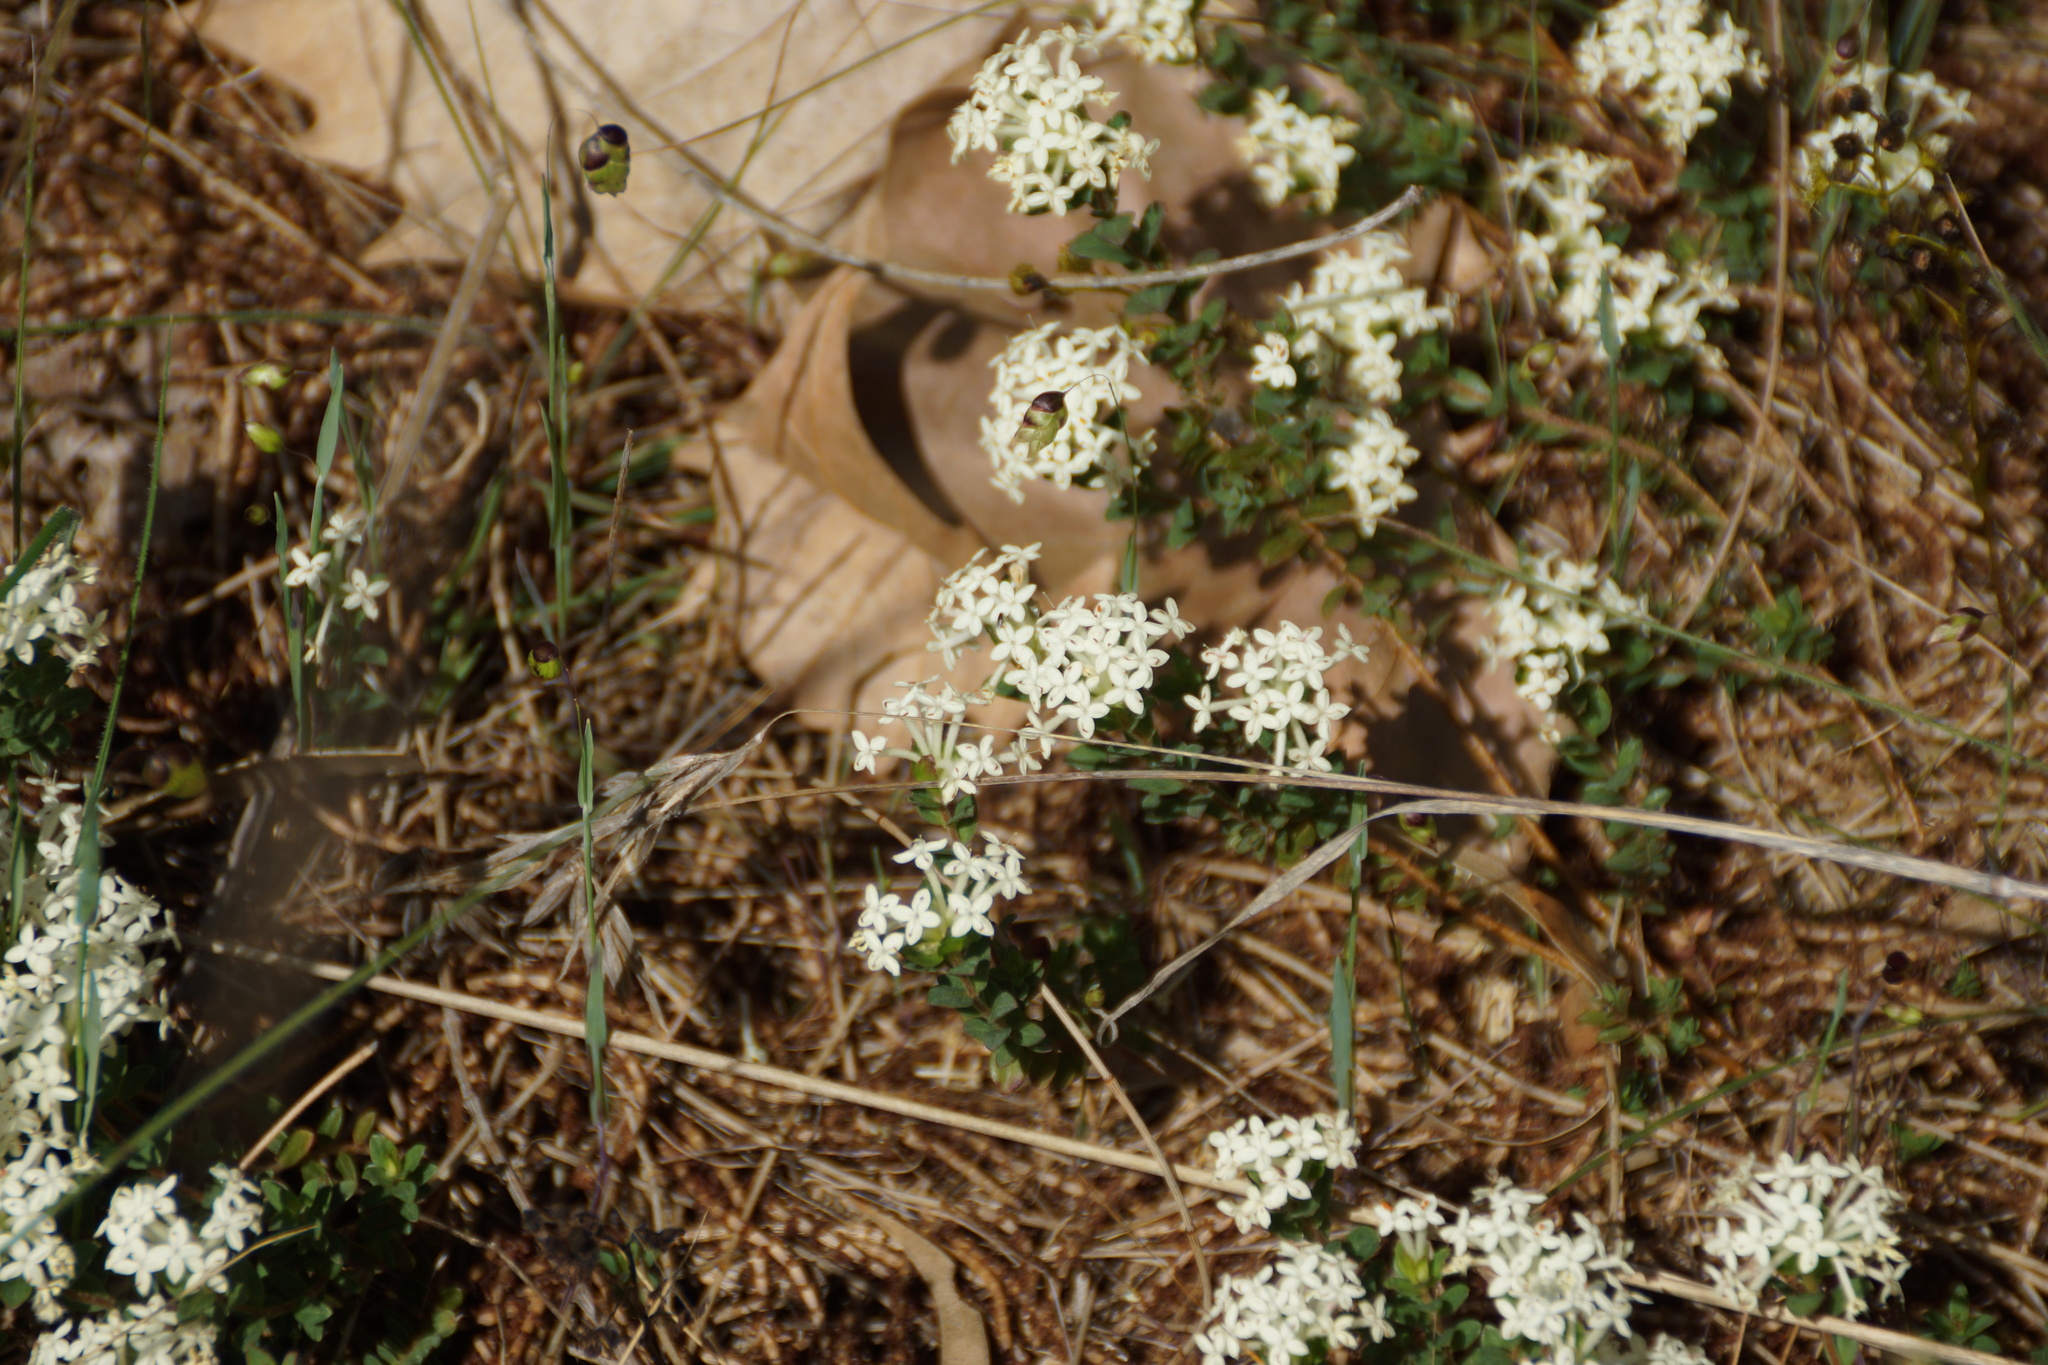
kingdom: Plantae
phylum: Tracheophyta
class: Magnoliopsida
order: Malvales
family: Thymelaeaceae
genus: Pimelea
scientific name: Pimelea humilis
